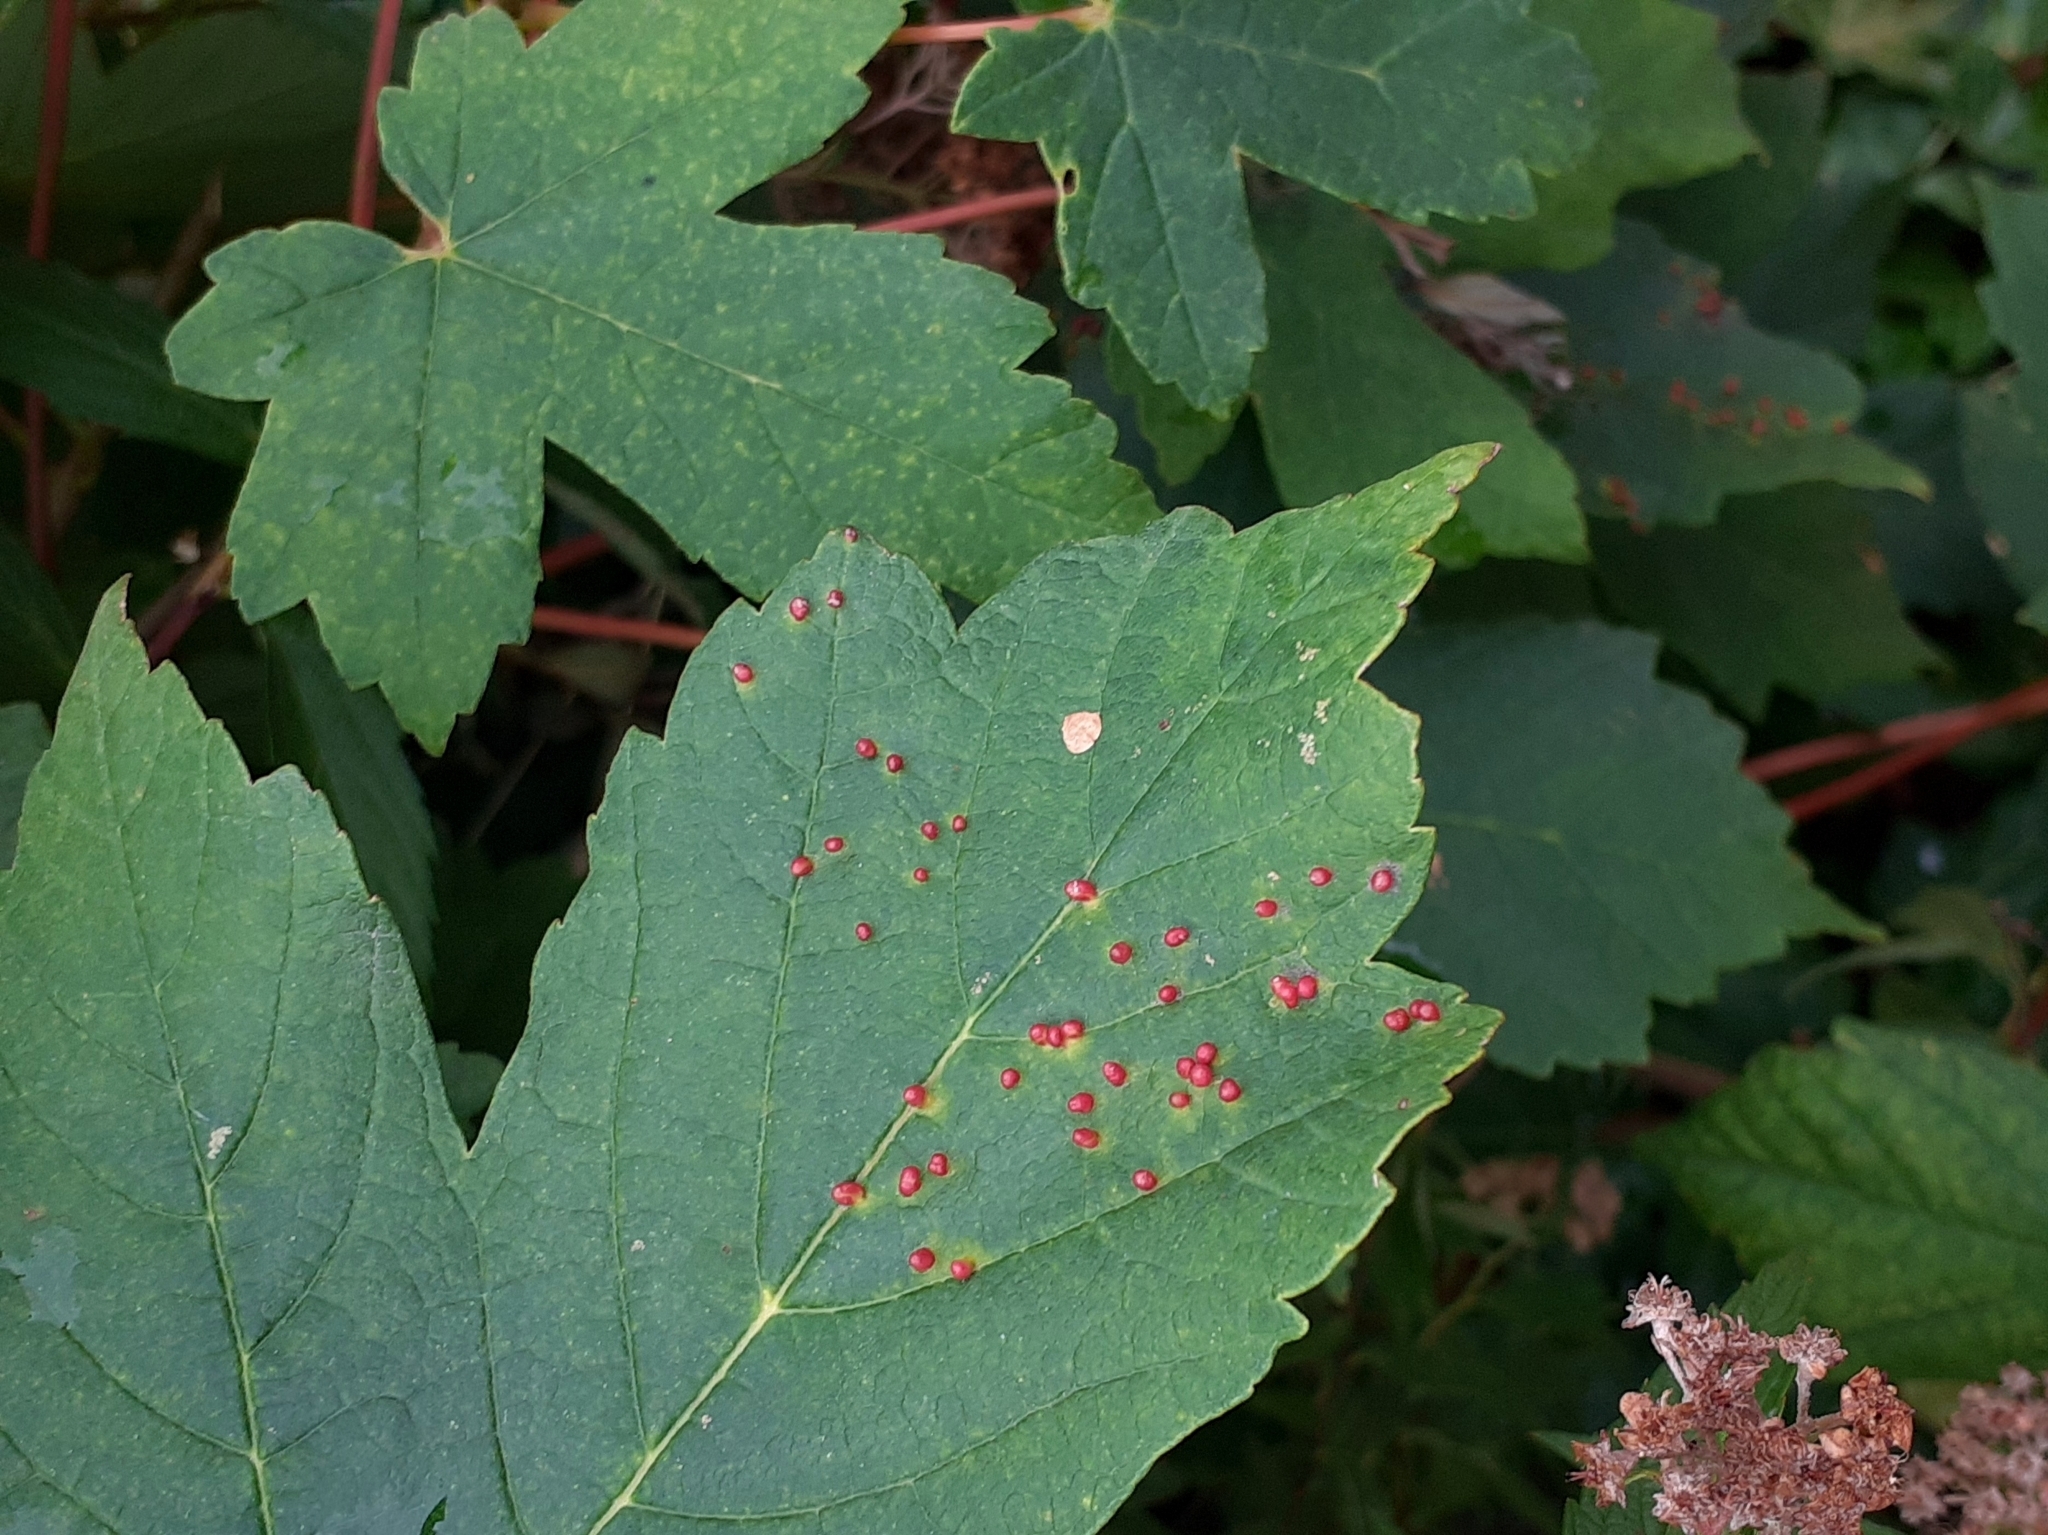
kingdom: Animalia
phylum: Arthropoda
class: Arachnida
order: Trombidiformes
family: Eriophyidae
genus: Aceria
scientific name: Aceria cephaloneus
